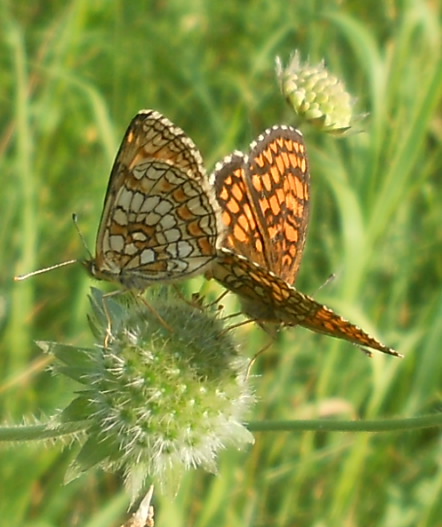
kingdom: Animalia
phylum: Arthropoda
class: Insecta
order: Lepidoptera
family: Nymphalidae
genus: Melitaea
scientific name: Melitaea athalia
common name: Heath fritillary
